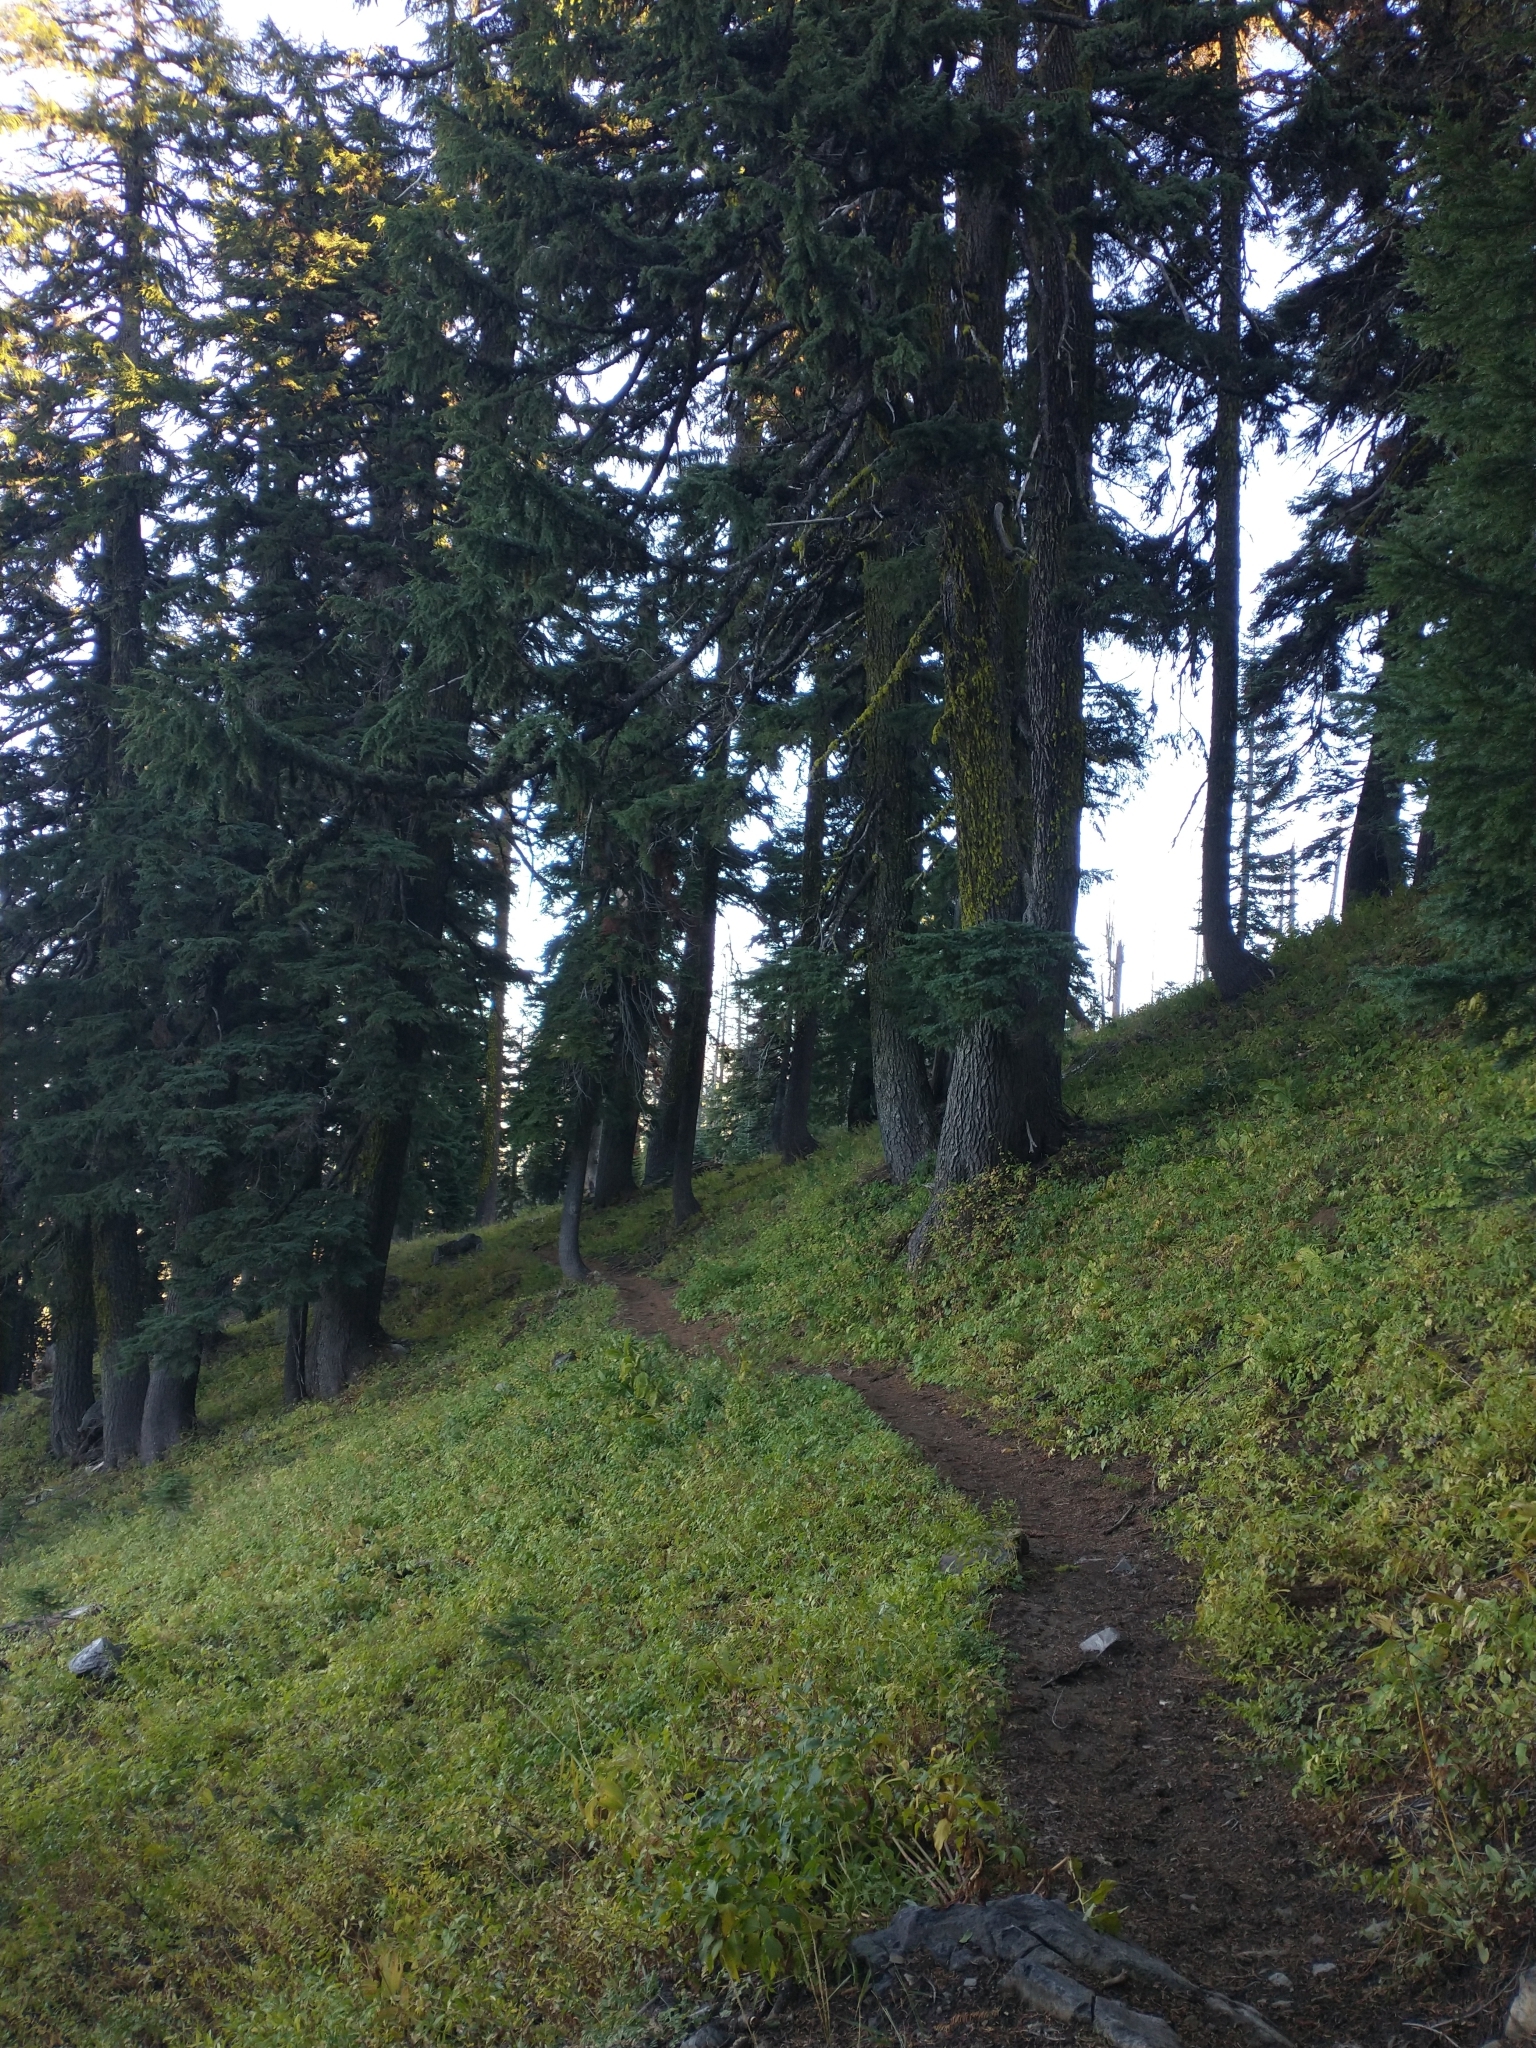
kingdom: Plantae
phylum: Tracheophyta
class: Pinopsida
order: Pinales
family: Pinaceae
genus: Tsuga
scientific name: Tsuga mertensiana
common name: Mountain hemlock
